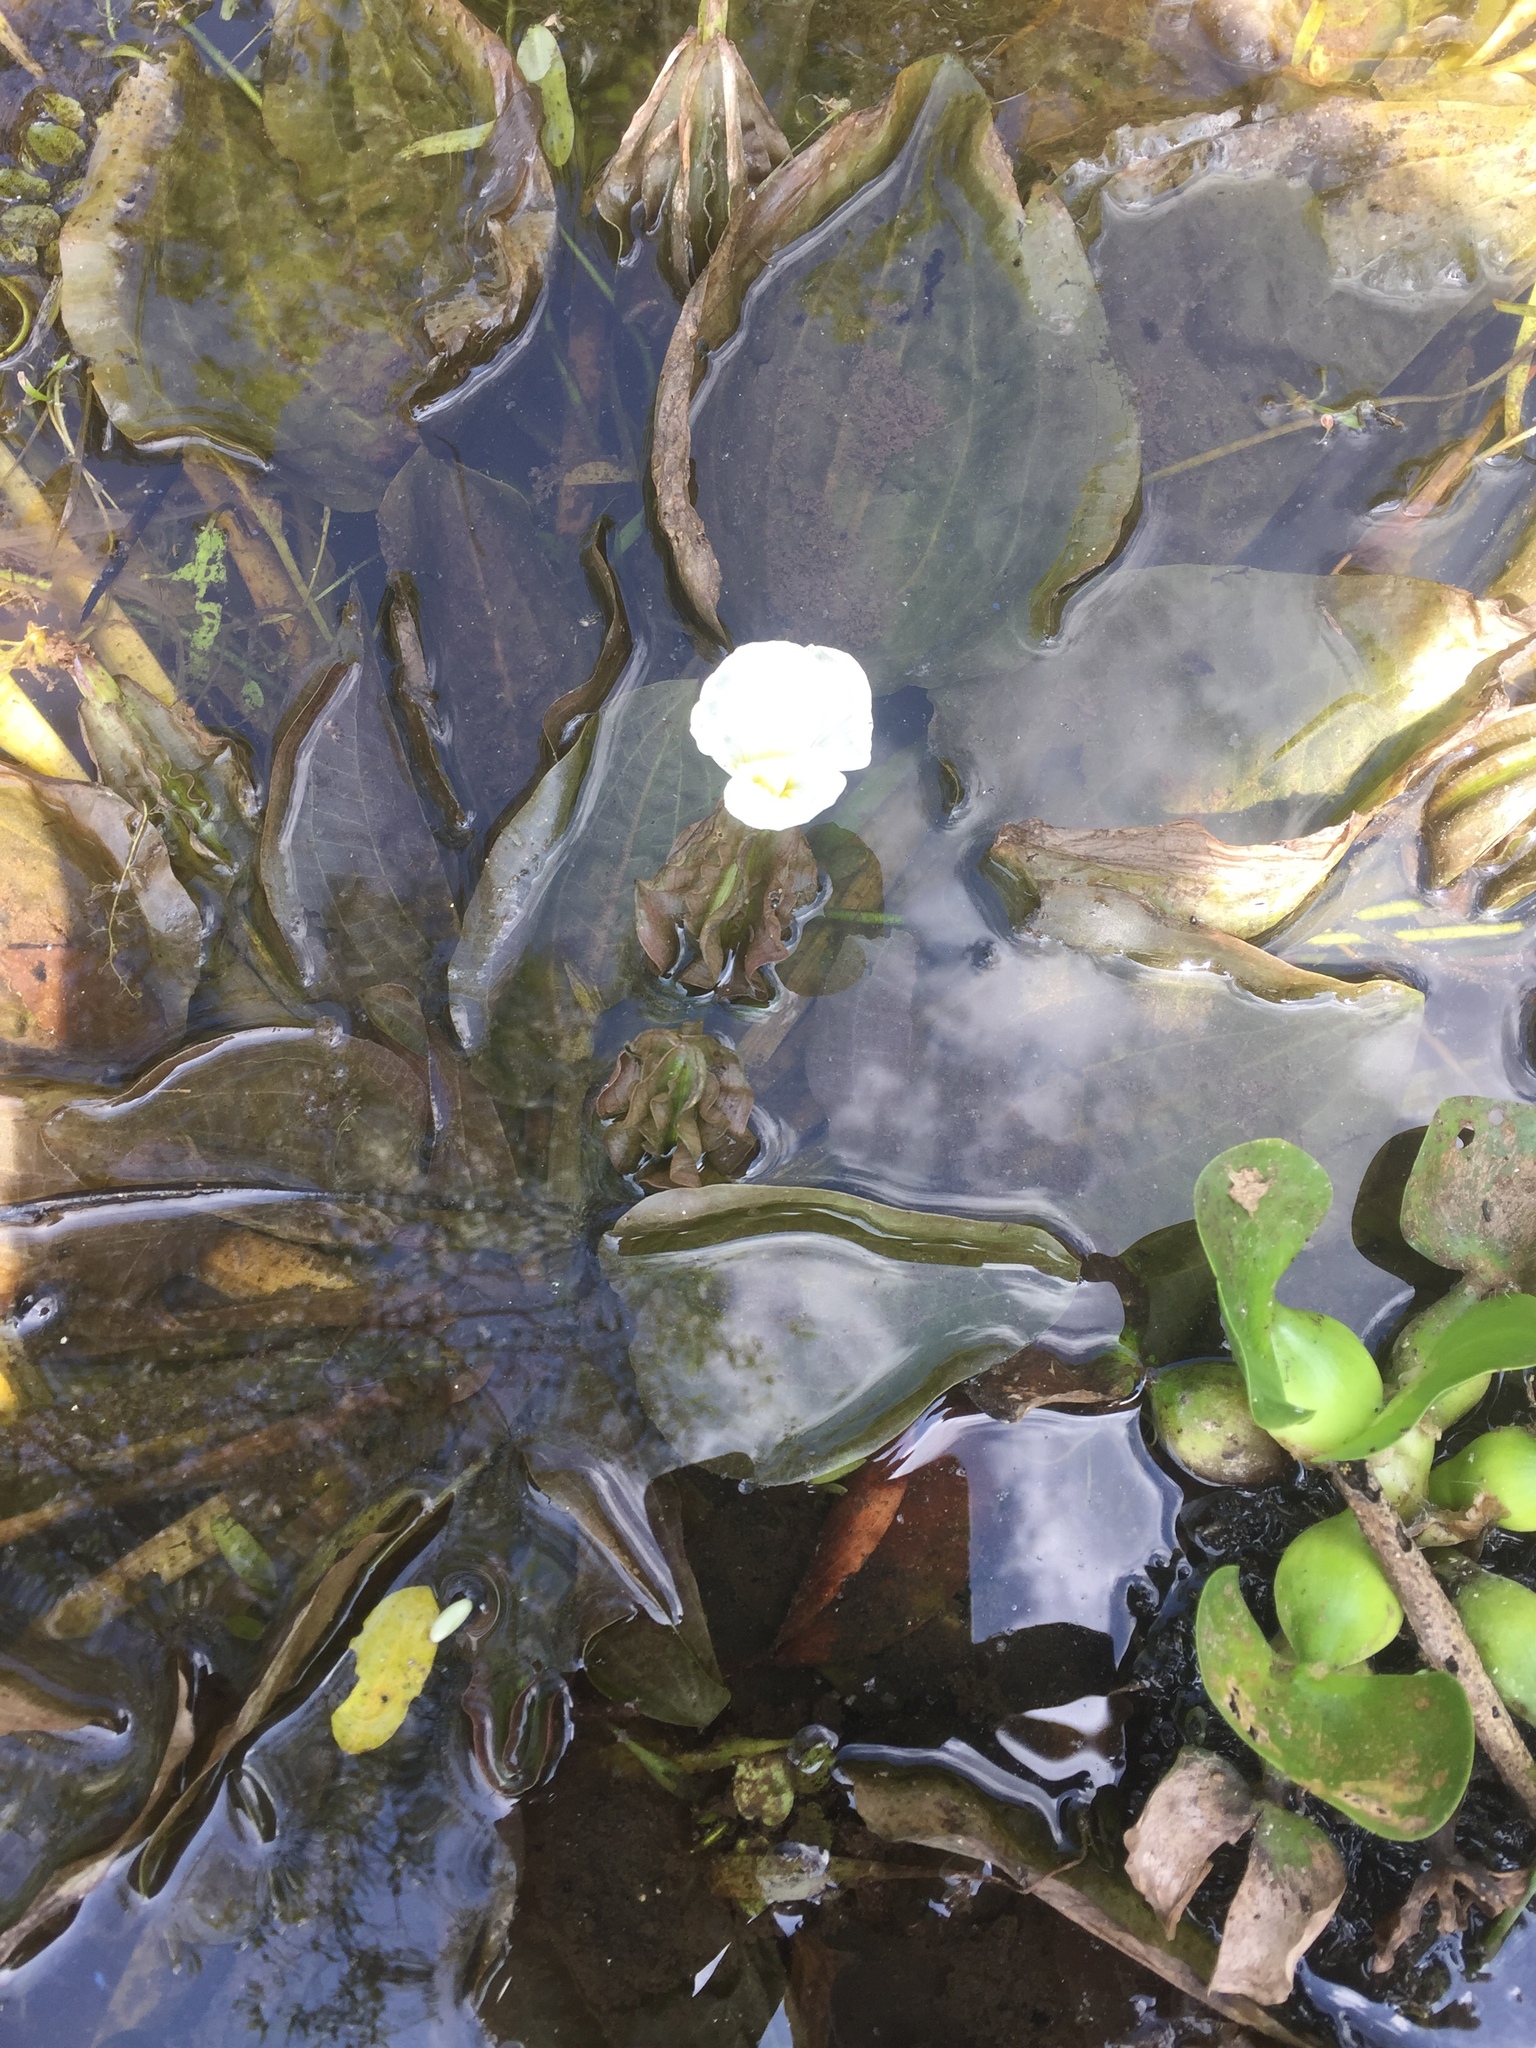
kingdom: Plantae
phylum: Tracheophyta
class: Liliopsida
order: Alismatales
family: Hydrocharitaceae
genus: Ottelia
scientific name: Ottelia alismoides
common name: Duck-lettuce
